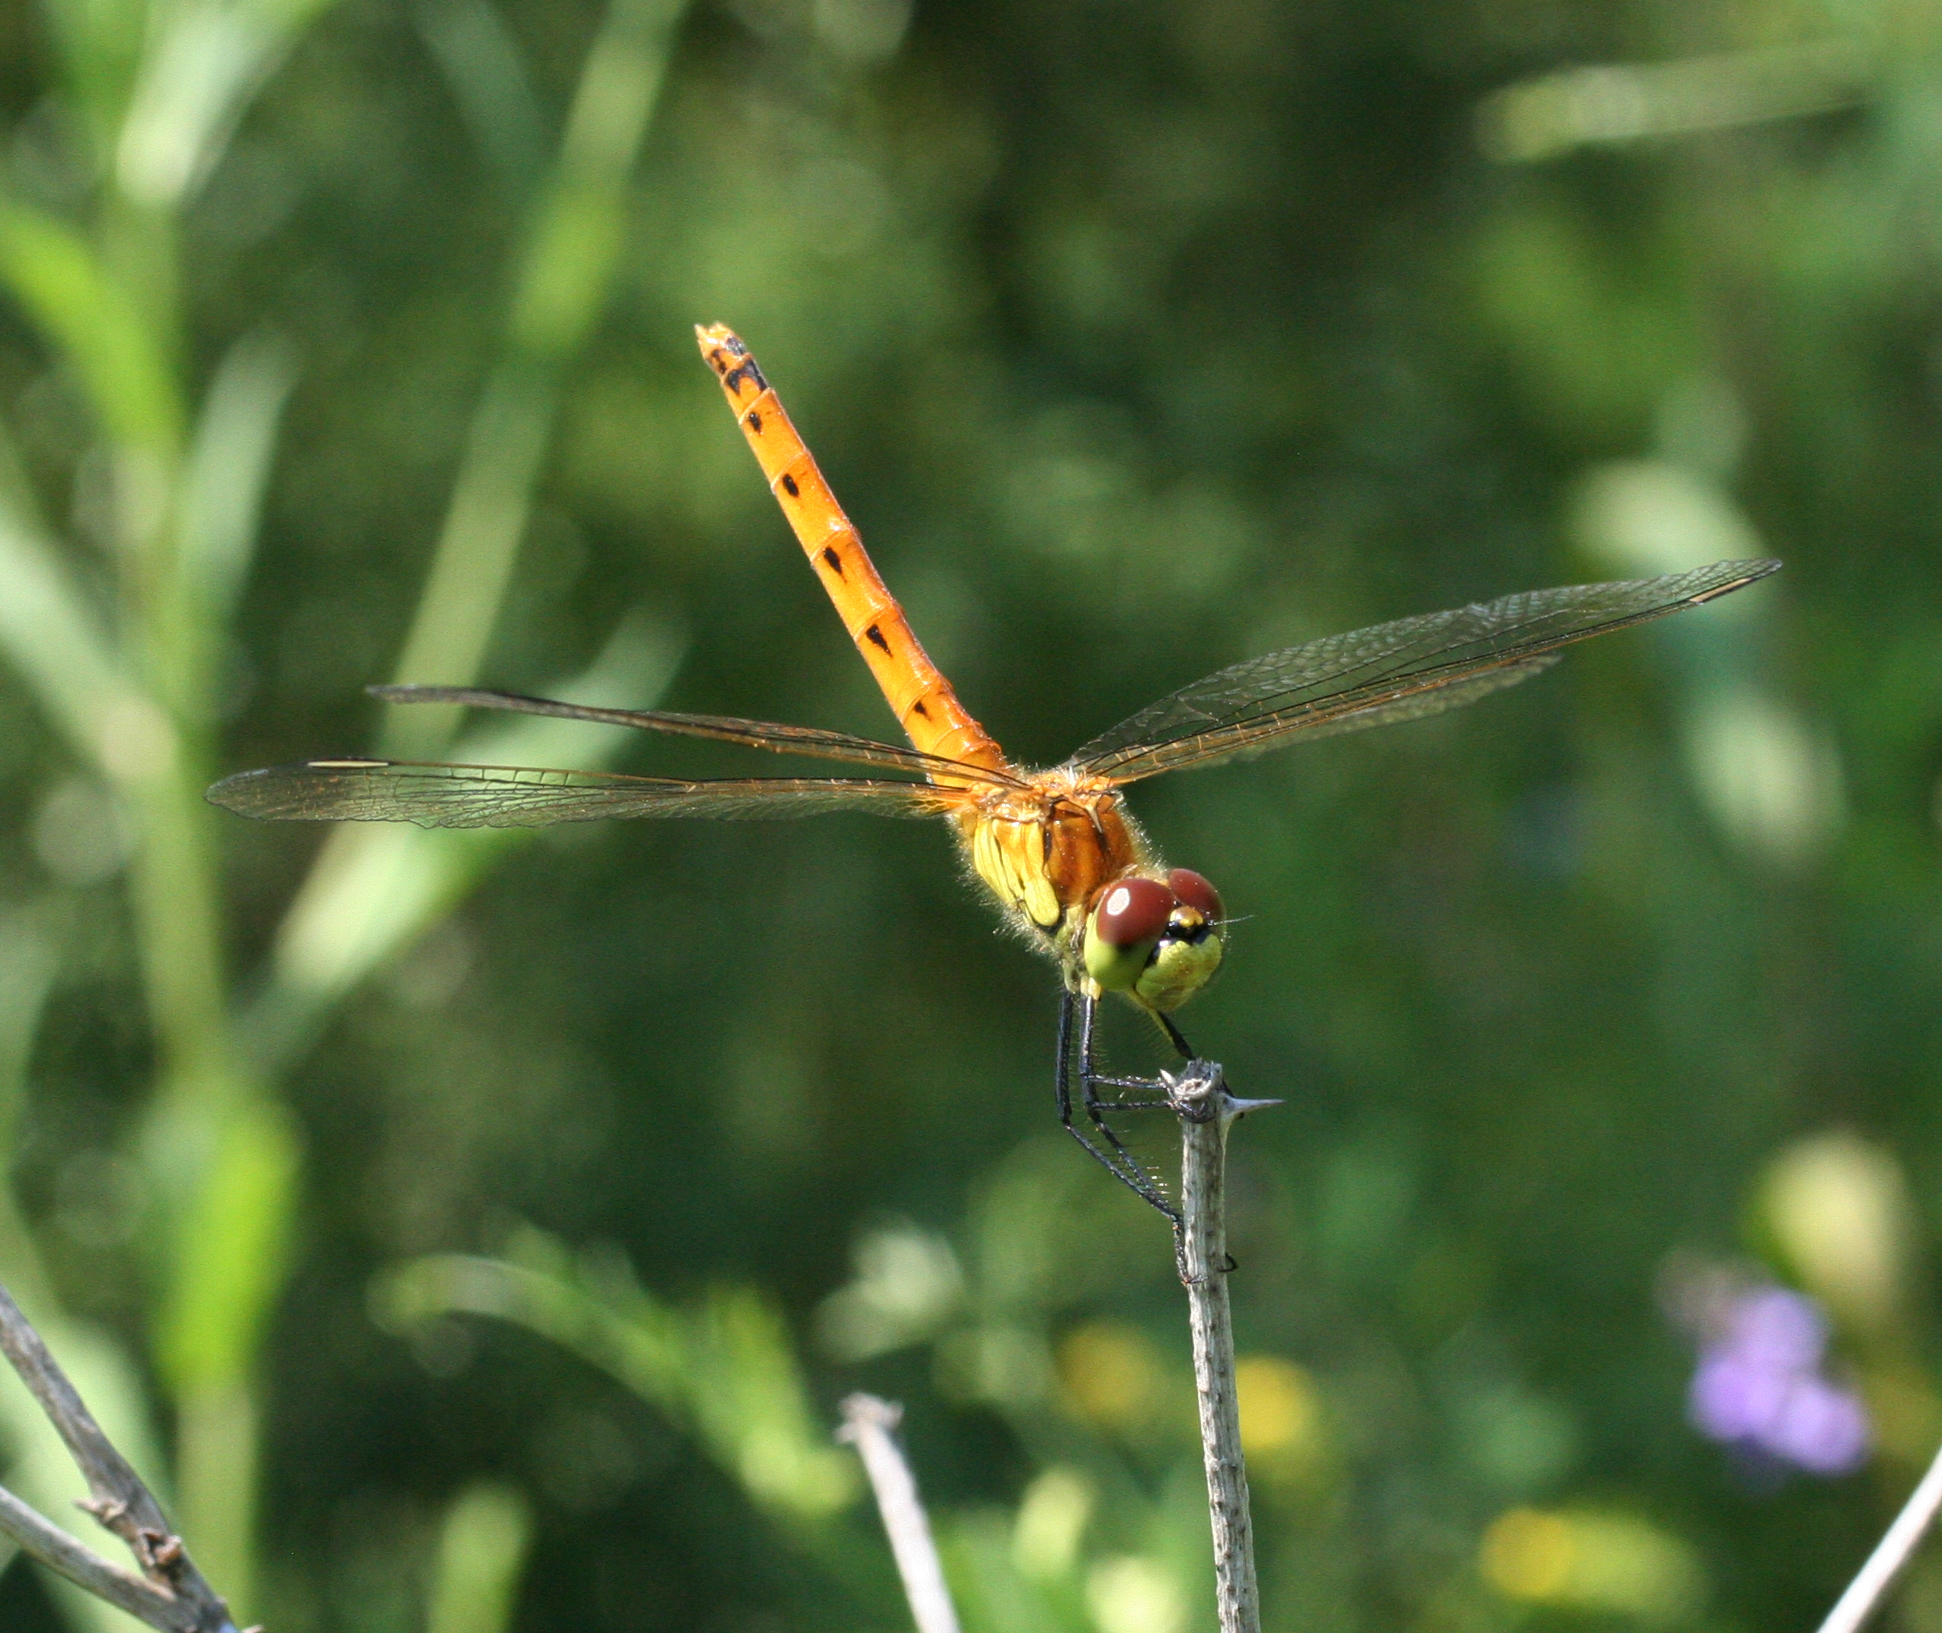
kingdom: Animalia
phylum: Arthropoda
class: Insecta
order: Odonata
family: Libellulidae
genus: Sympetrum
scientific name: Sympetrum depressiusculum
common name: Spotted darter
